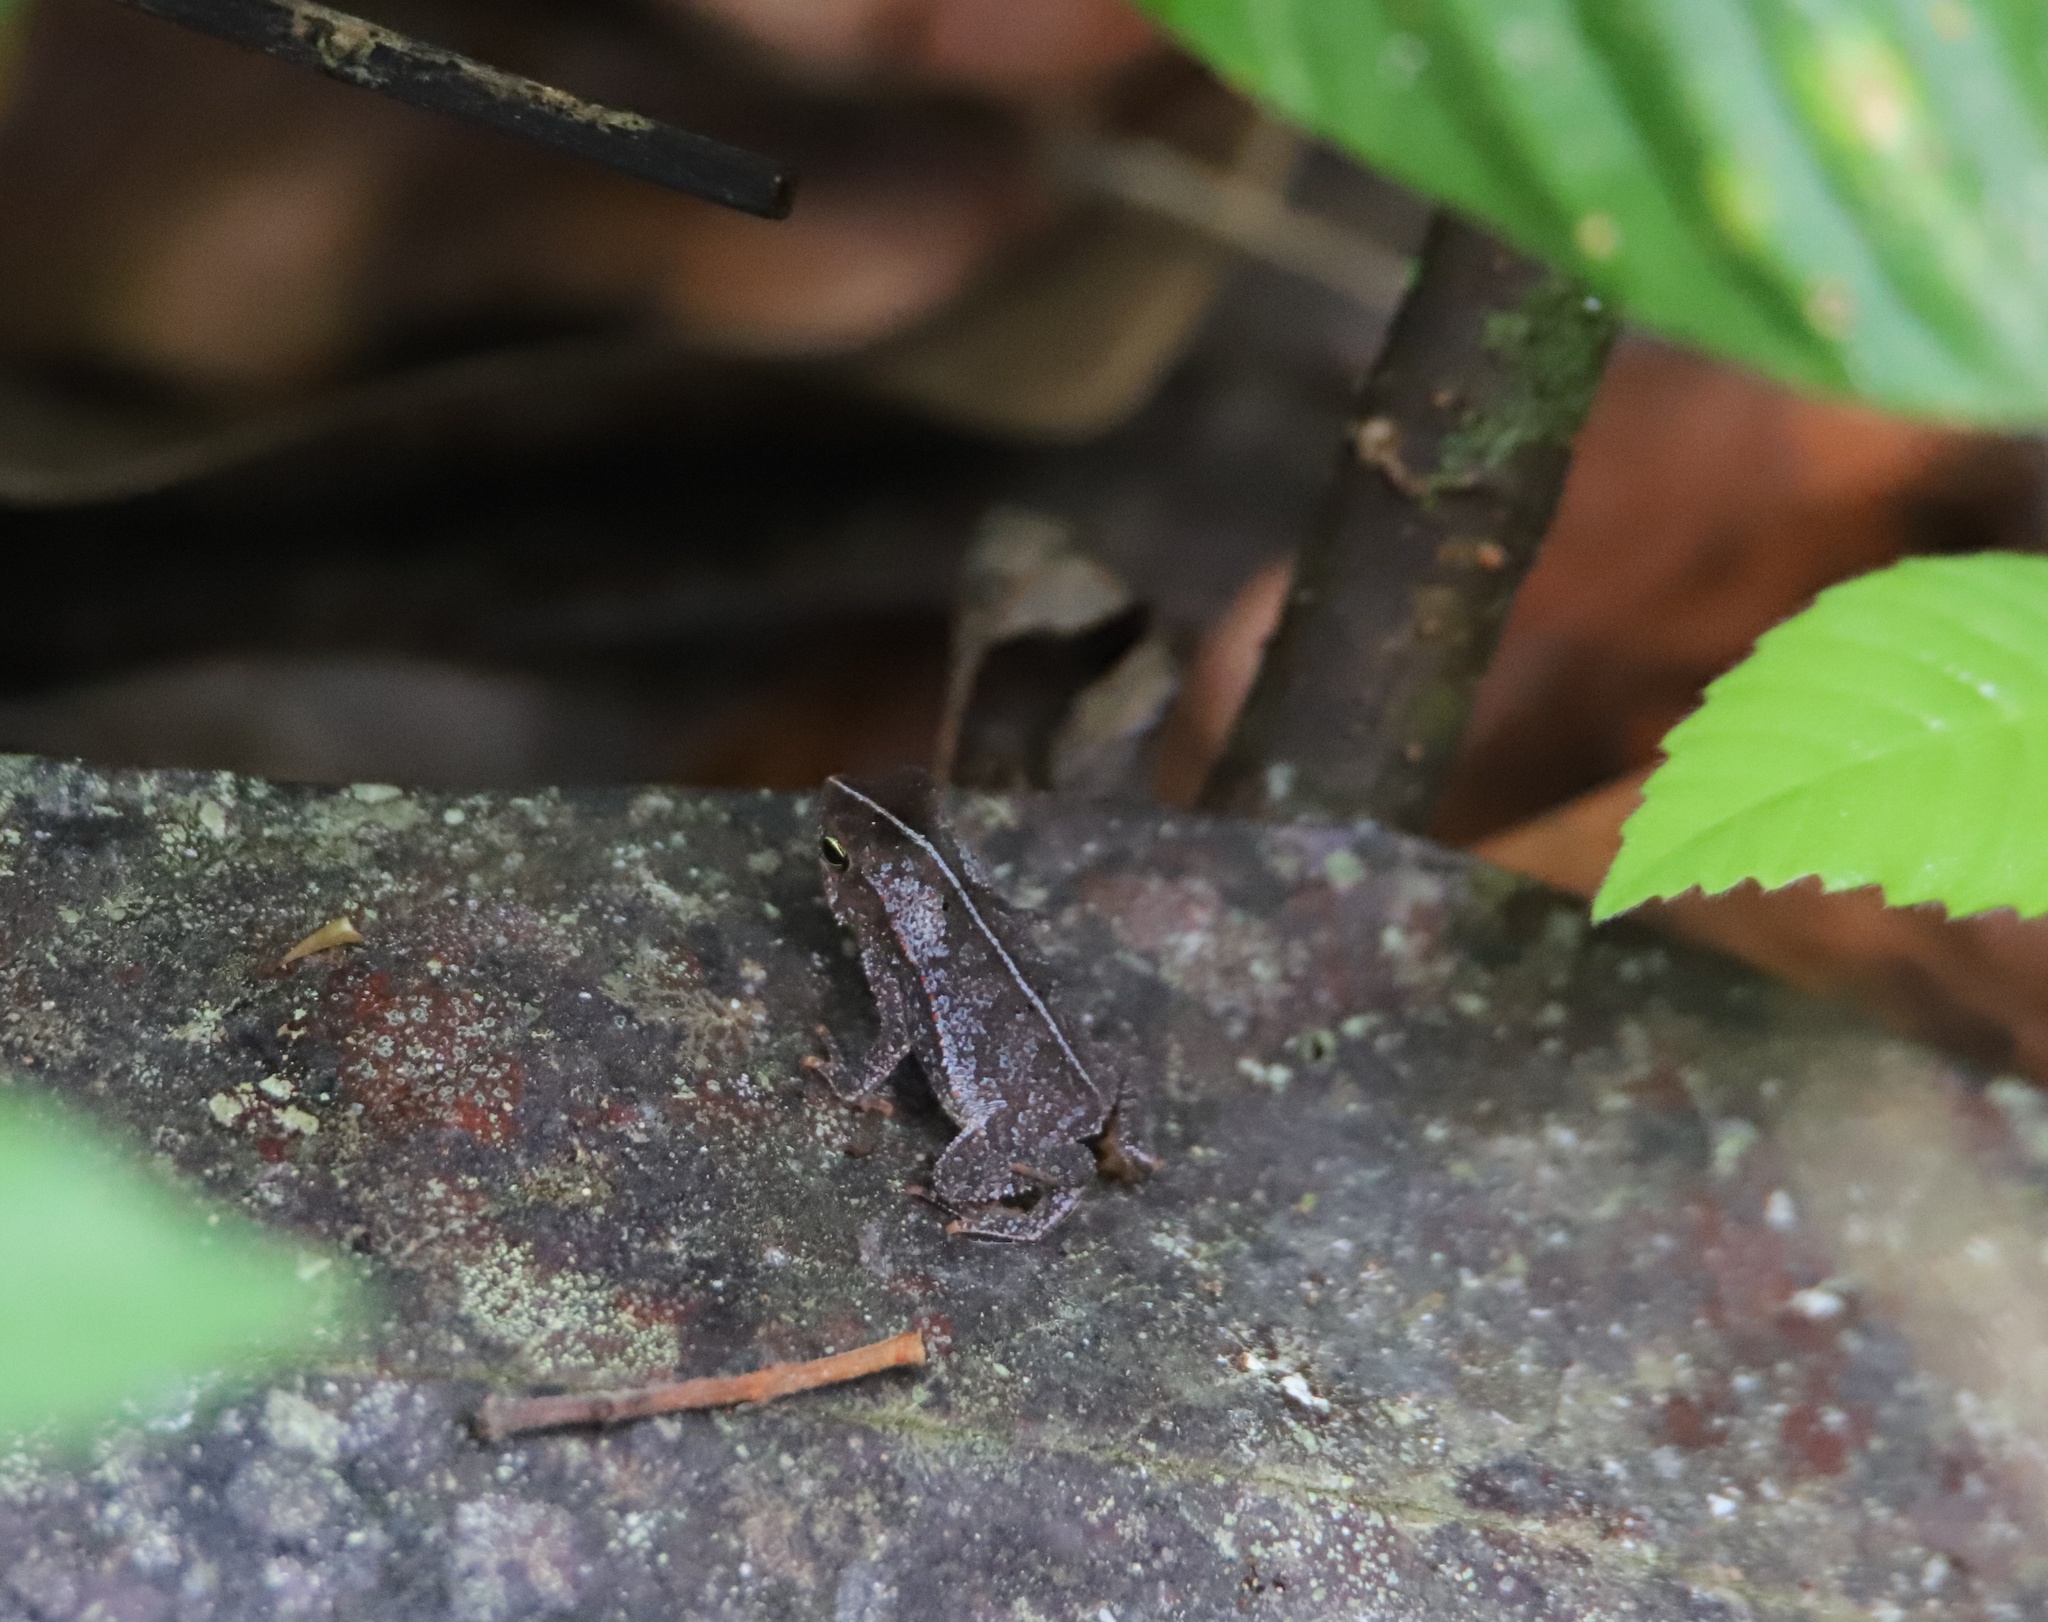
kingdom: Animalia
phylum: Chordata
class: Amphibia
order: Anura
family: Bufonidae
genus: Rhinella
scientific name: Rhinella alata
